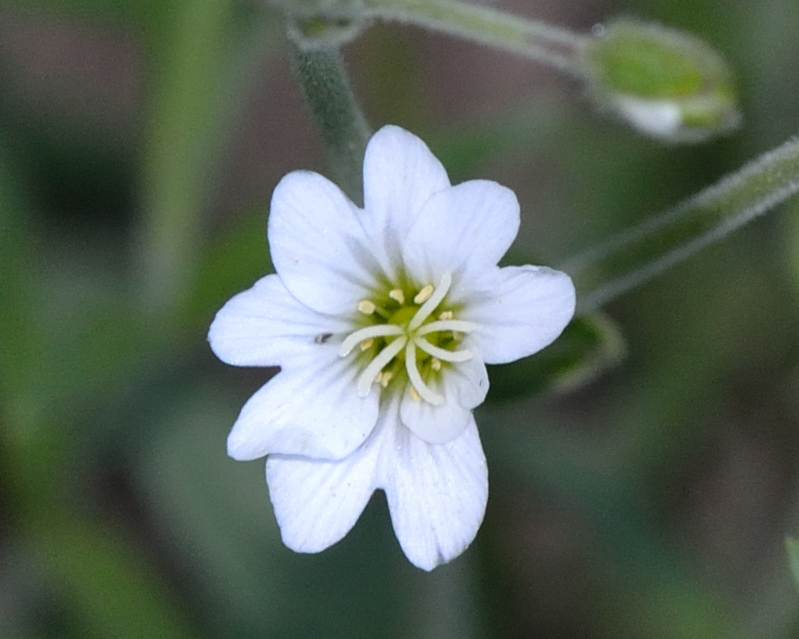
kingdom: Plantae
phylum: Tracheophyta
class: Magnoliopsida
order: Caryophyllales
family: Caryophyllaceae
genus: Cerastium
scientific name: Cerastium arvense
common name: Field mouse-ear
